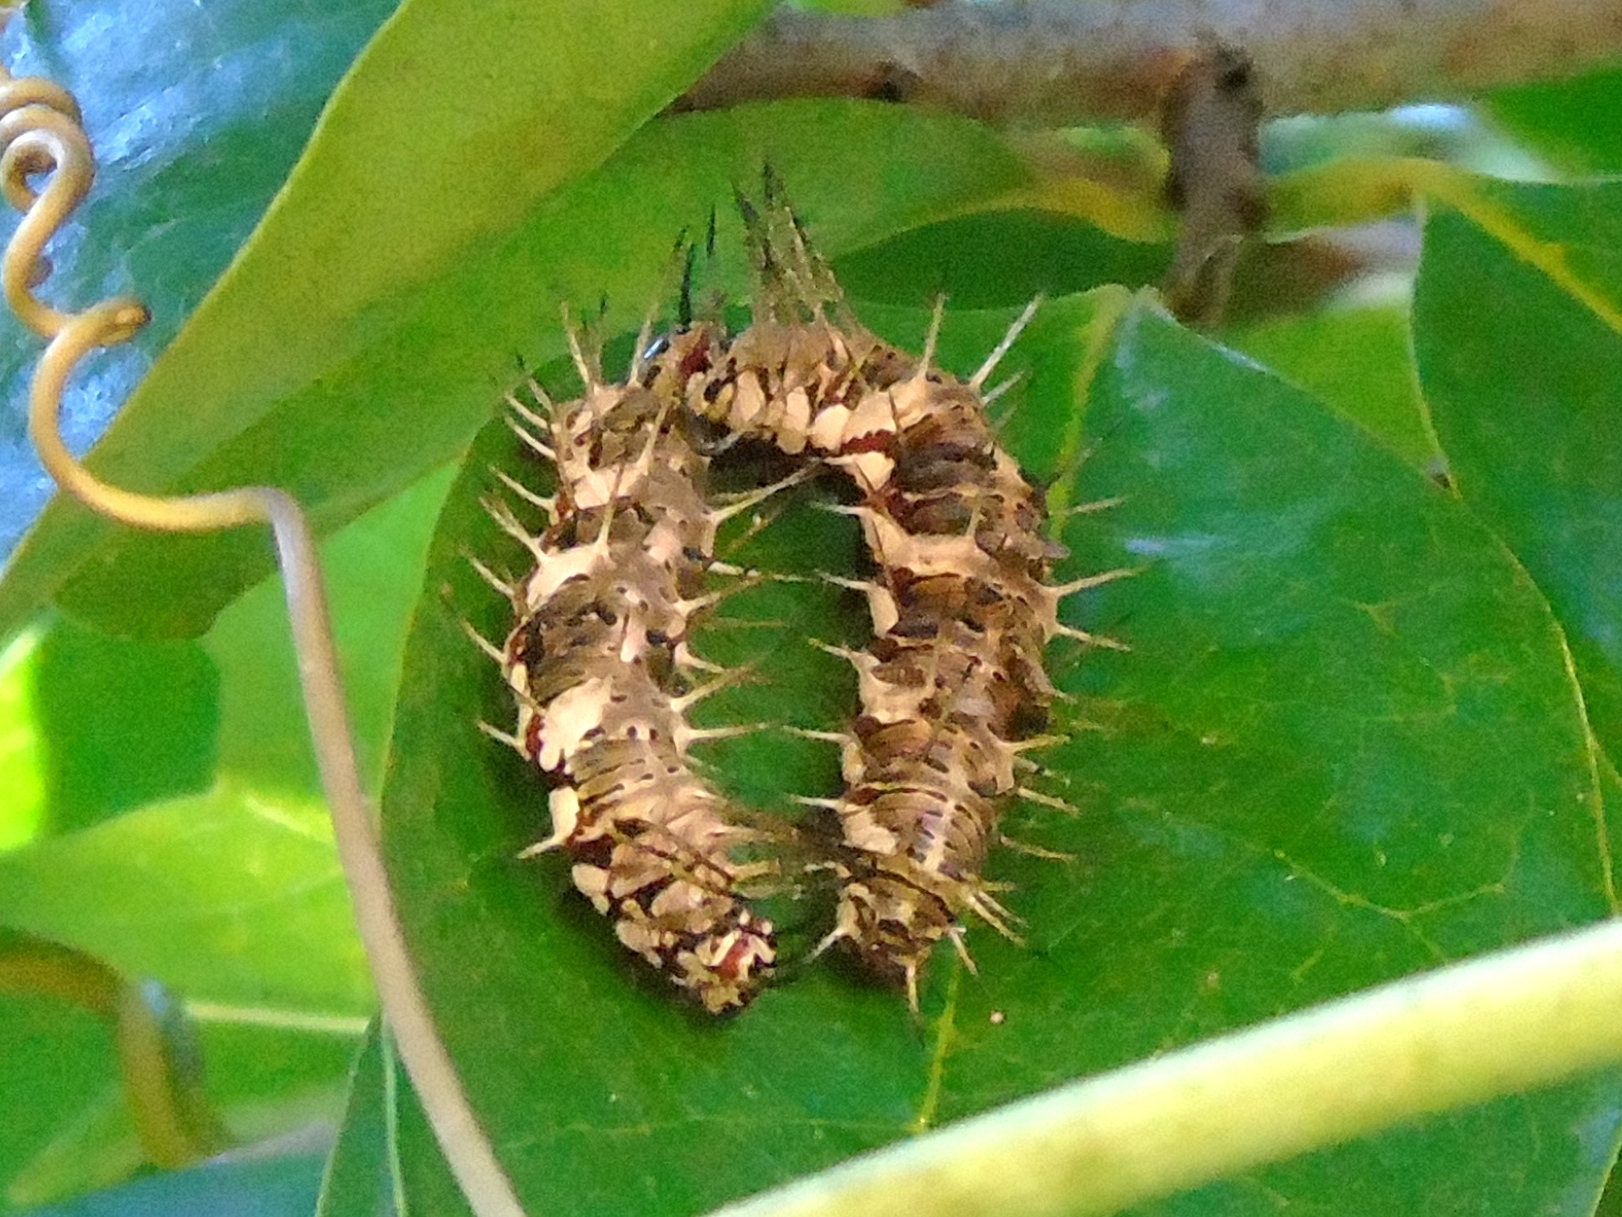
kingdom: Animalia
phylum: Arthropoda
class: Insecta
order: Lepidoptera
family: Nymphalidae
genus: Dryas
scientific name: Dryas iulia
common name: Flambeau
